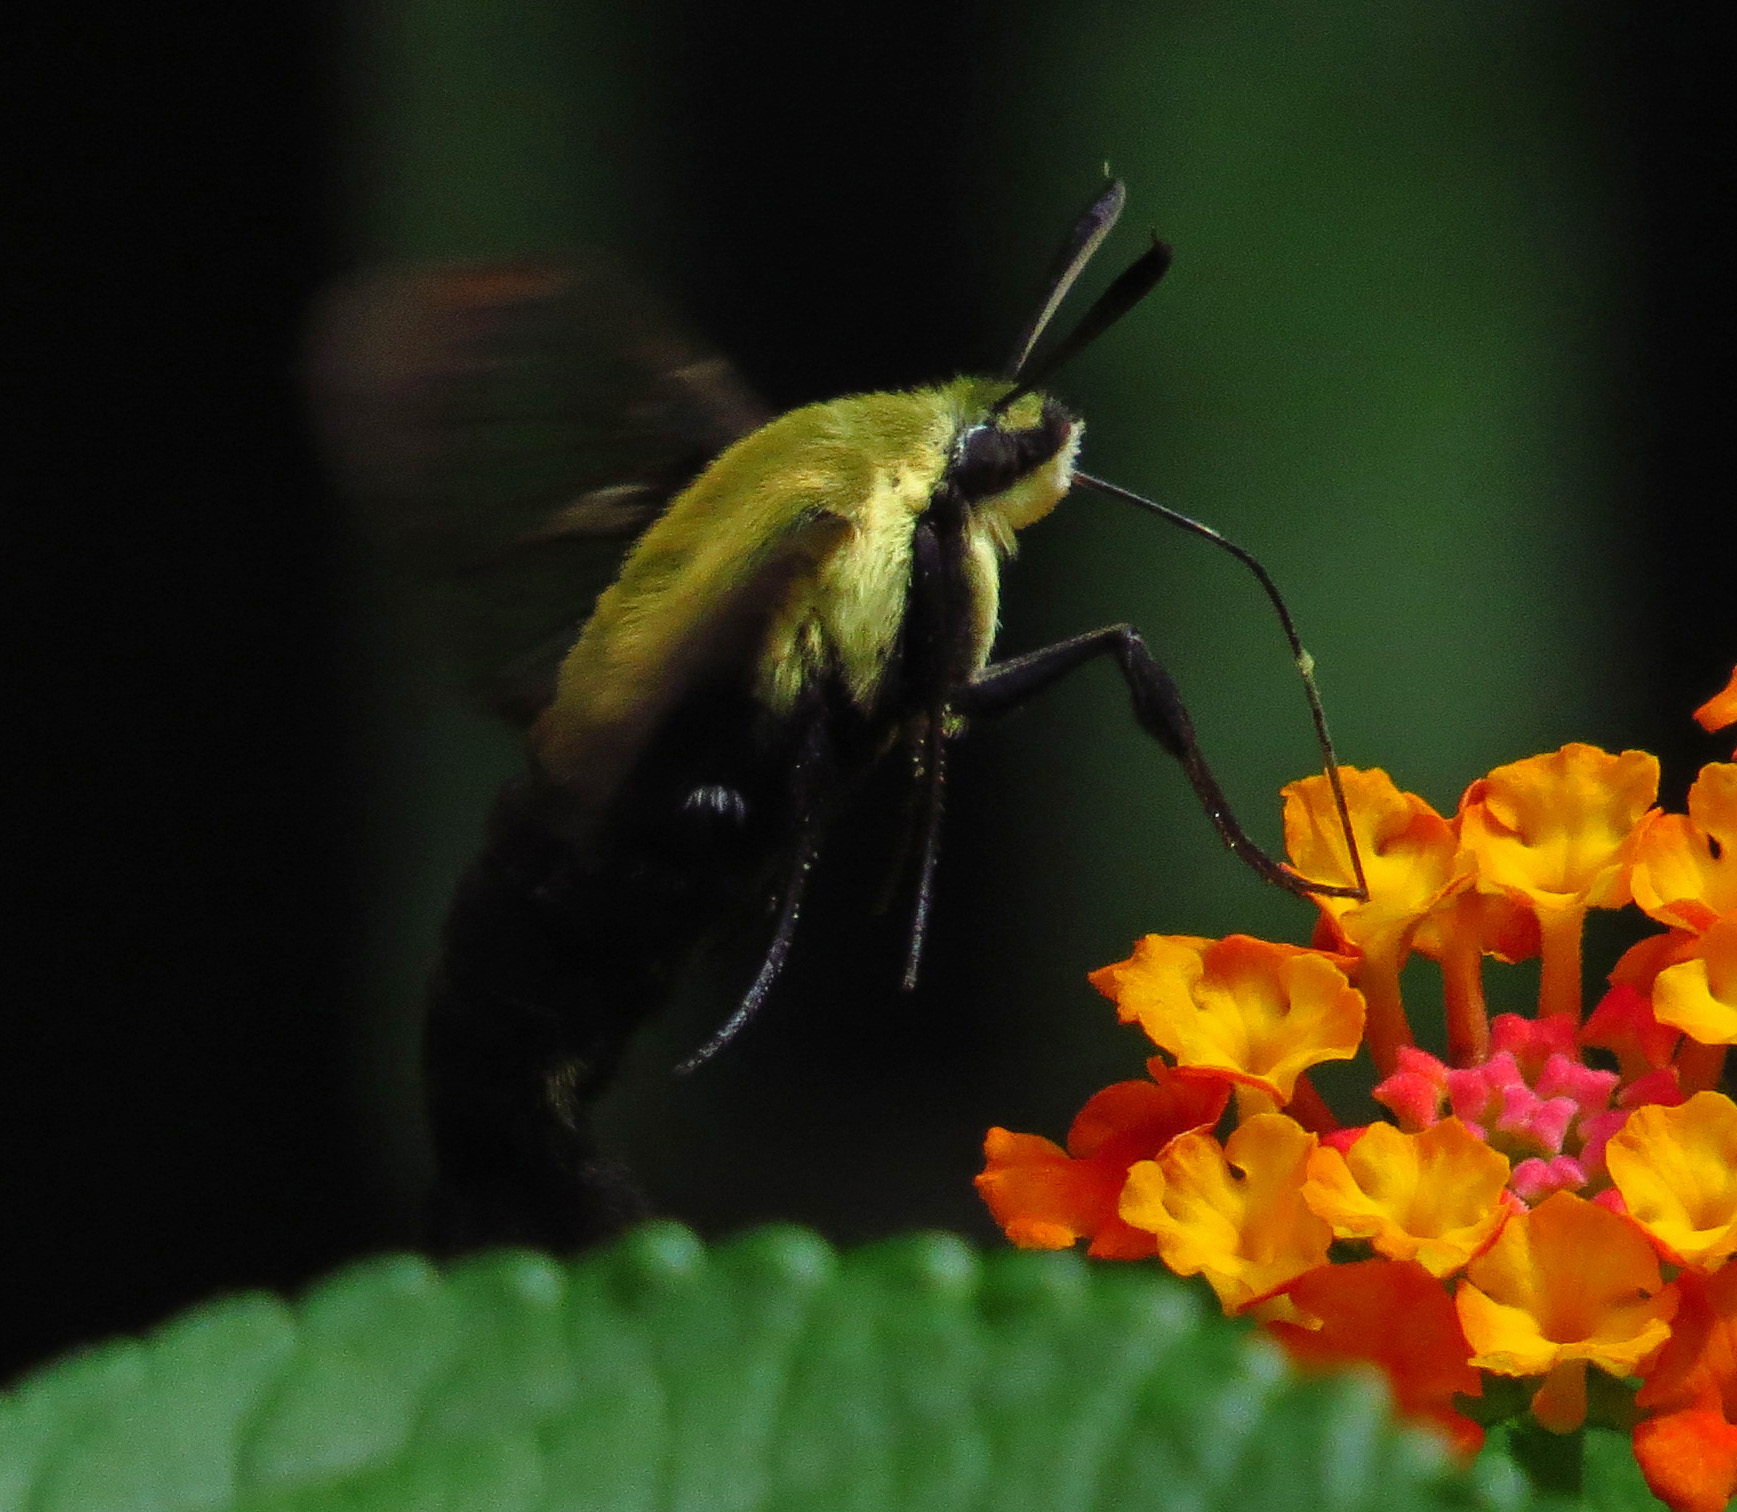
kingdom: Animalia
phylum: Arthropoda
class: Insecta
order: Lepidoptera
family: Sphingidae
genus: Hemaris
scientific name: Hemaris diffinis
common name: Bumblebee moth
